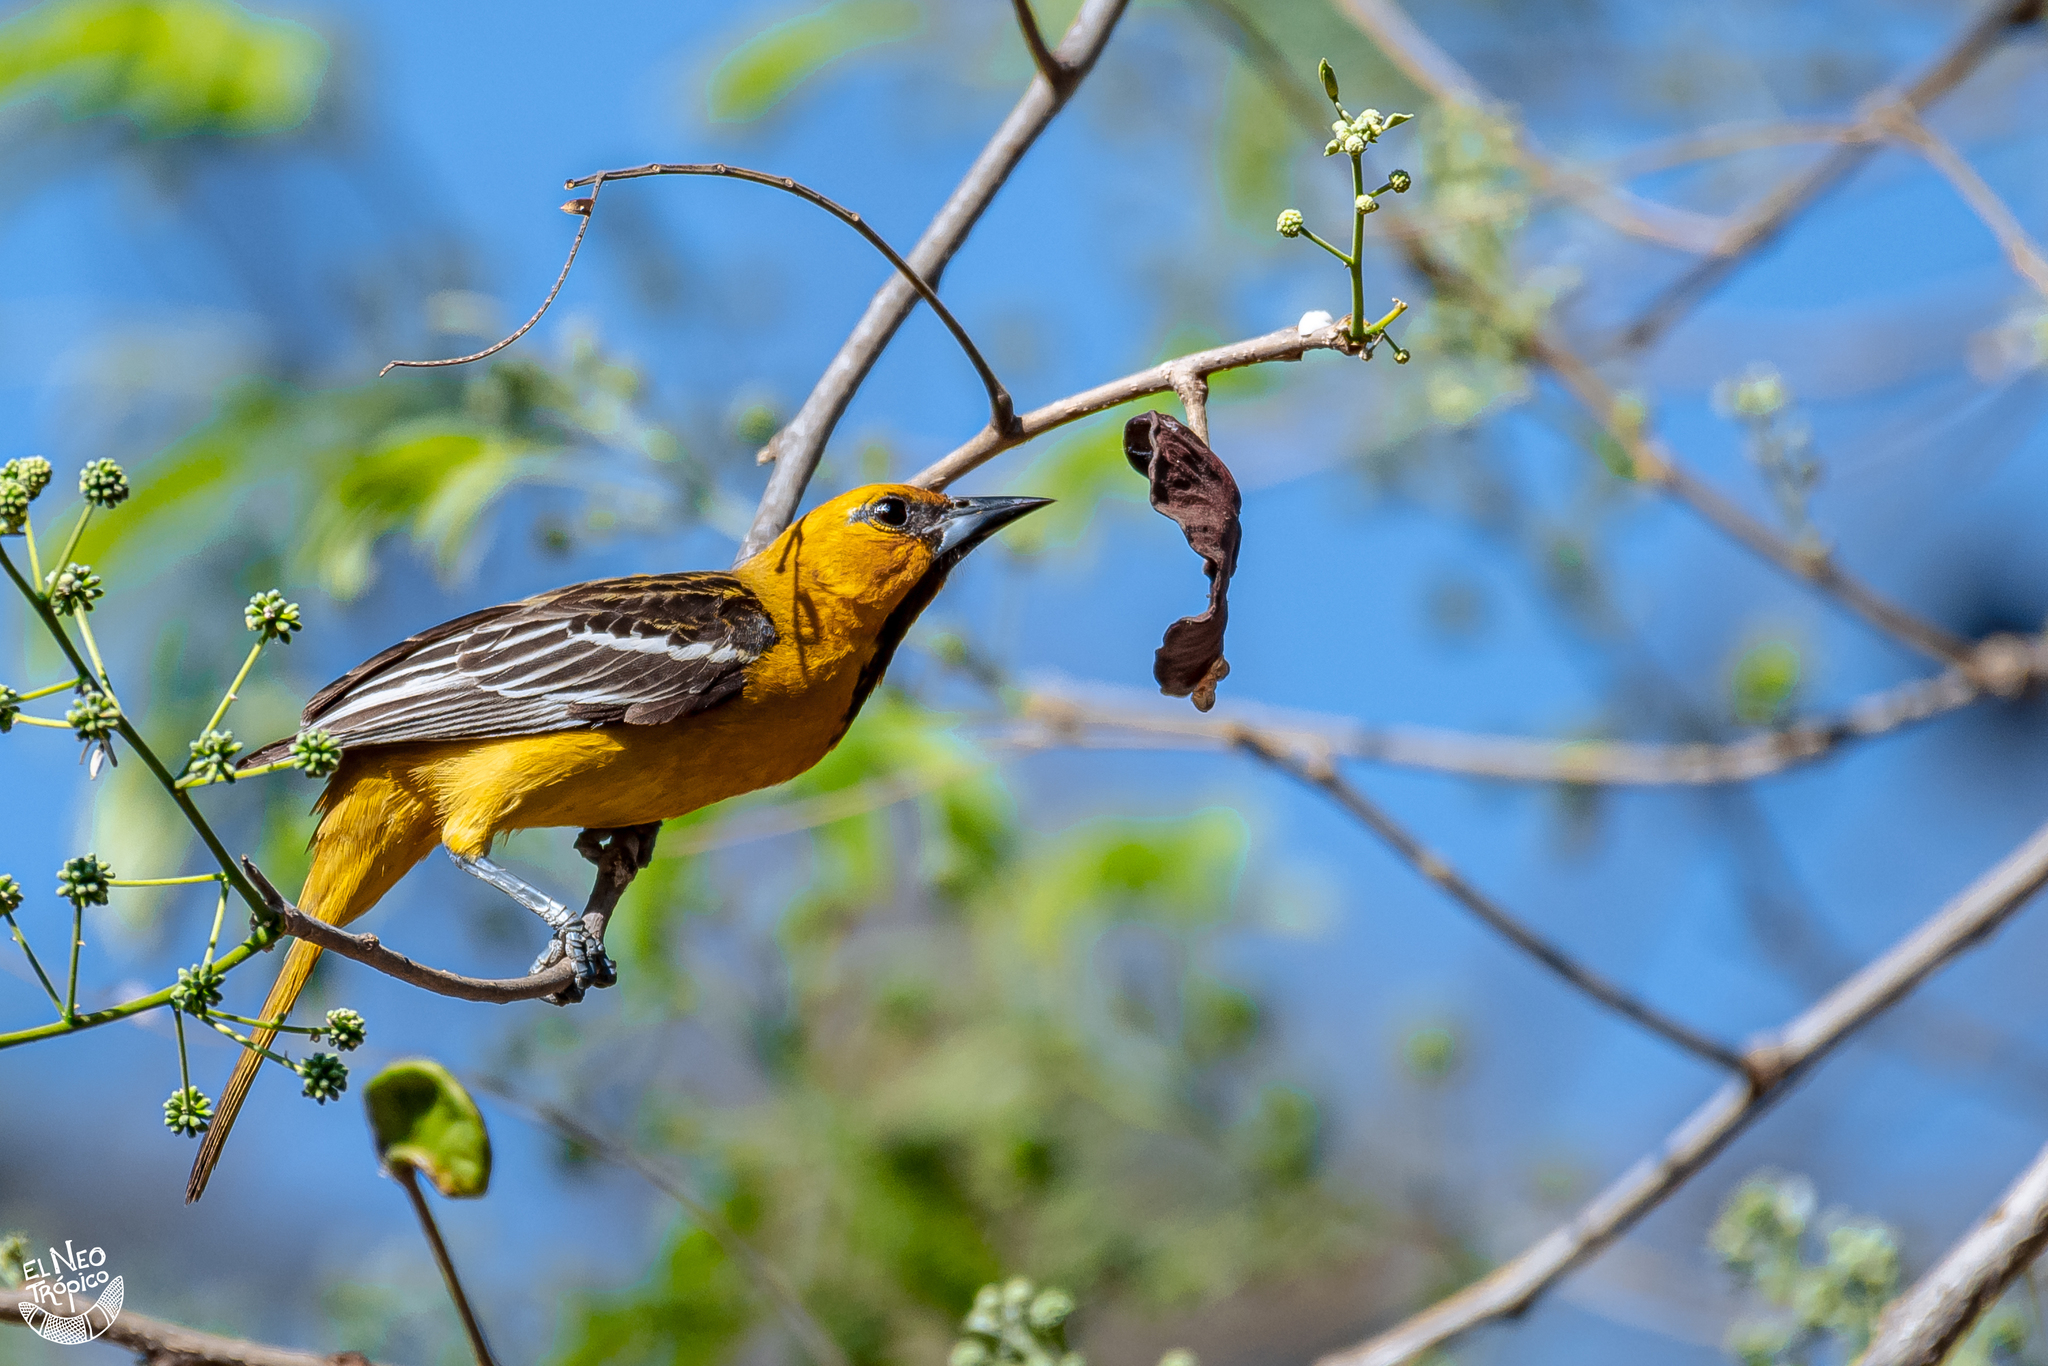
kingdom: Animalia
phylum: Chordata
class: Aves
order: Passeriformes
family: Icteridae
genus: Icterus
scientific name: Icterus pustulatus
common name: Streak-backed oriole
